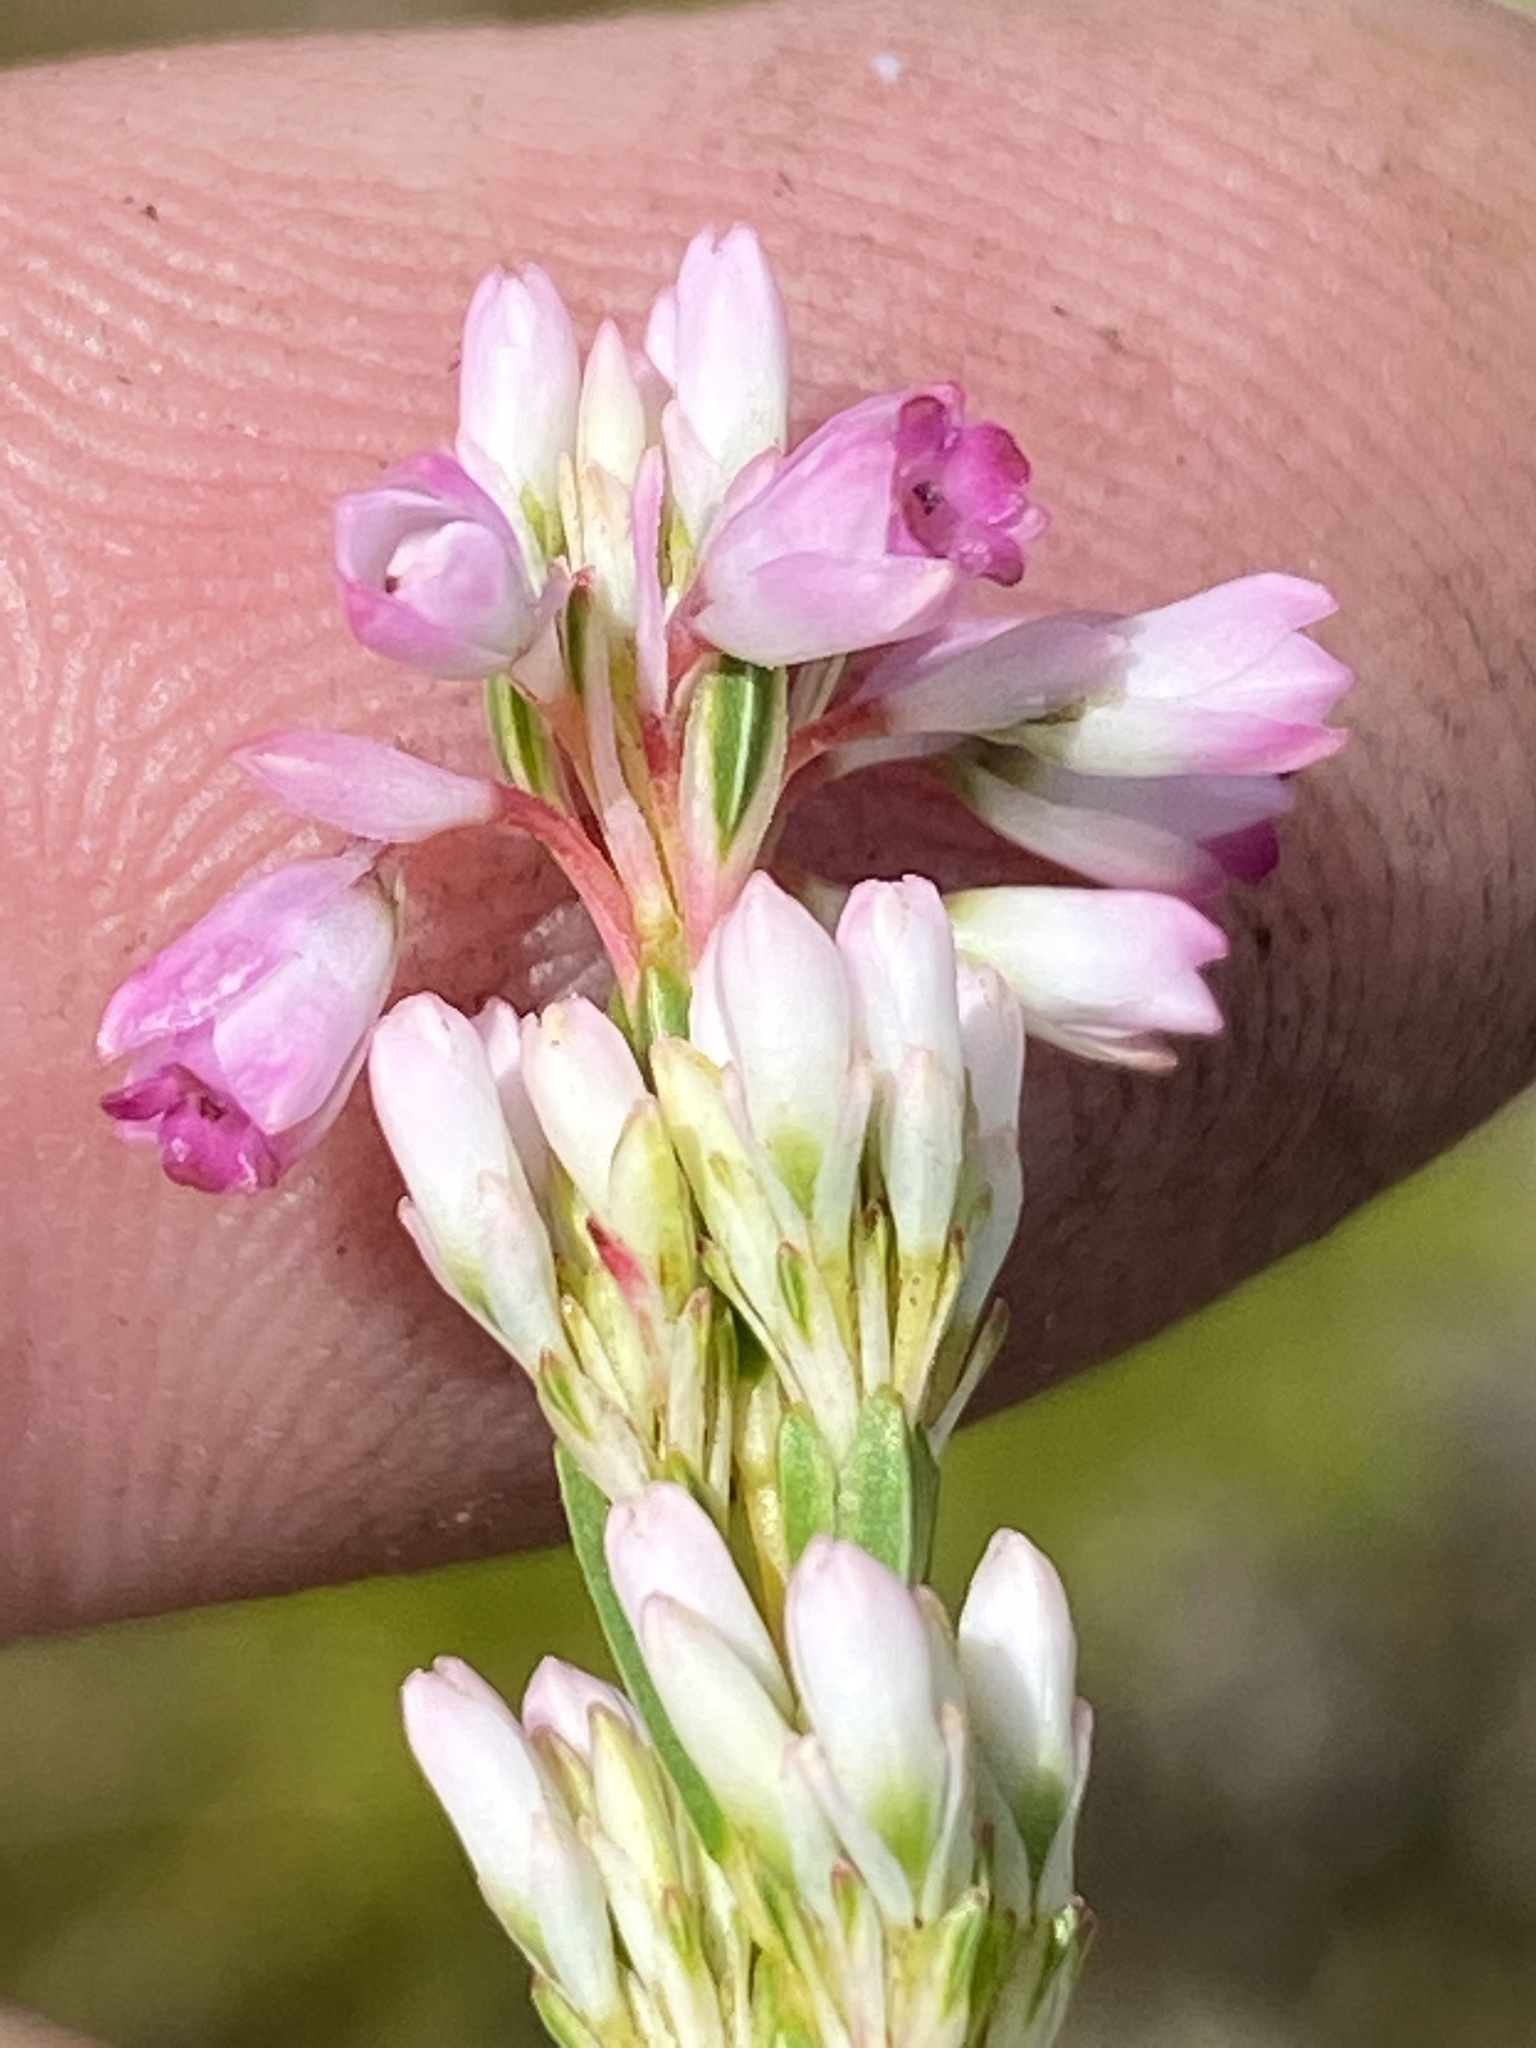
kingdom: Plantae
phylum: Tracheophyta
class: Magnoliopsida
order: Ericales
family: Ericaceae
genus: Erica
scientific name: Erica articularis
